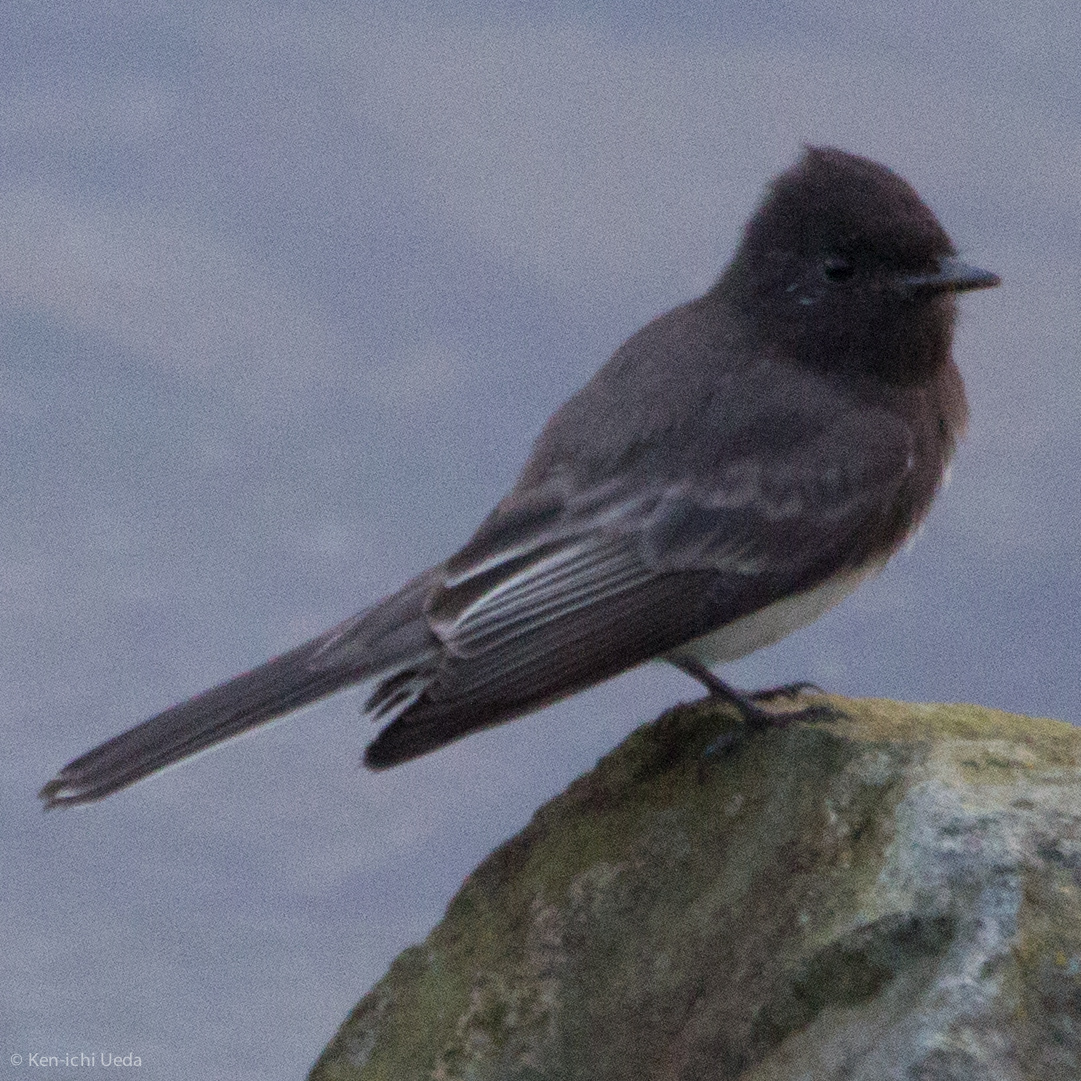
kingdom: Animalia
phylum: Chordata
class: Aves
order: Passeriformes
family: Tyrannidae
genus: Sayornis
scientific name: Sayornis nigricans
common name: Black phoebe
